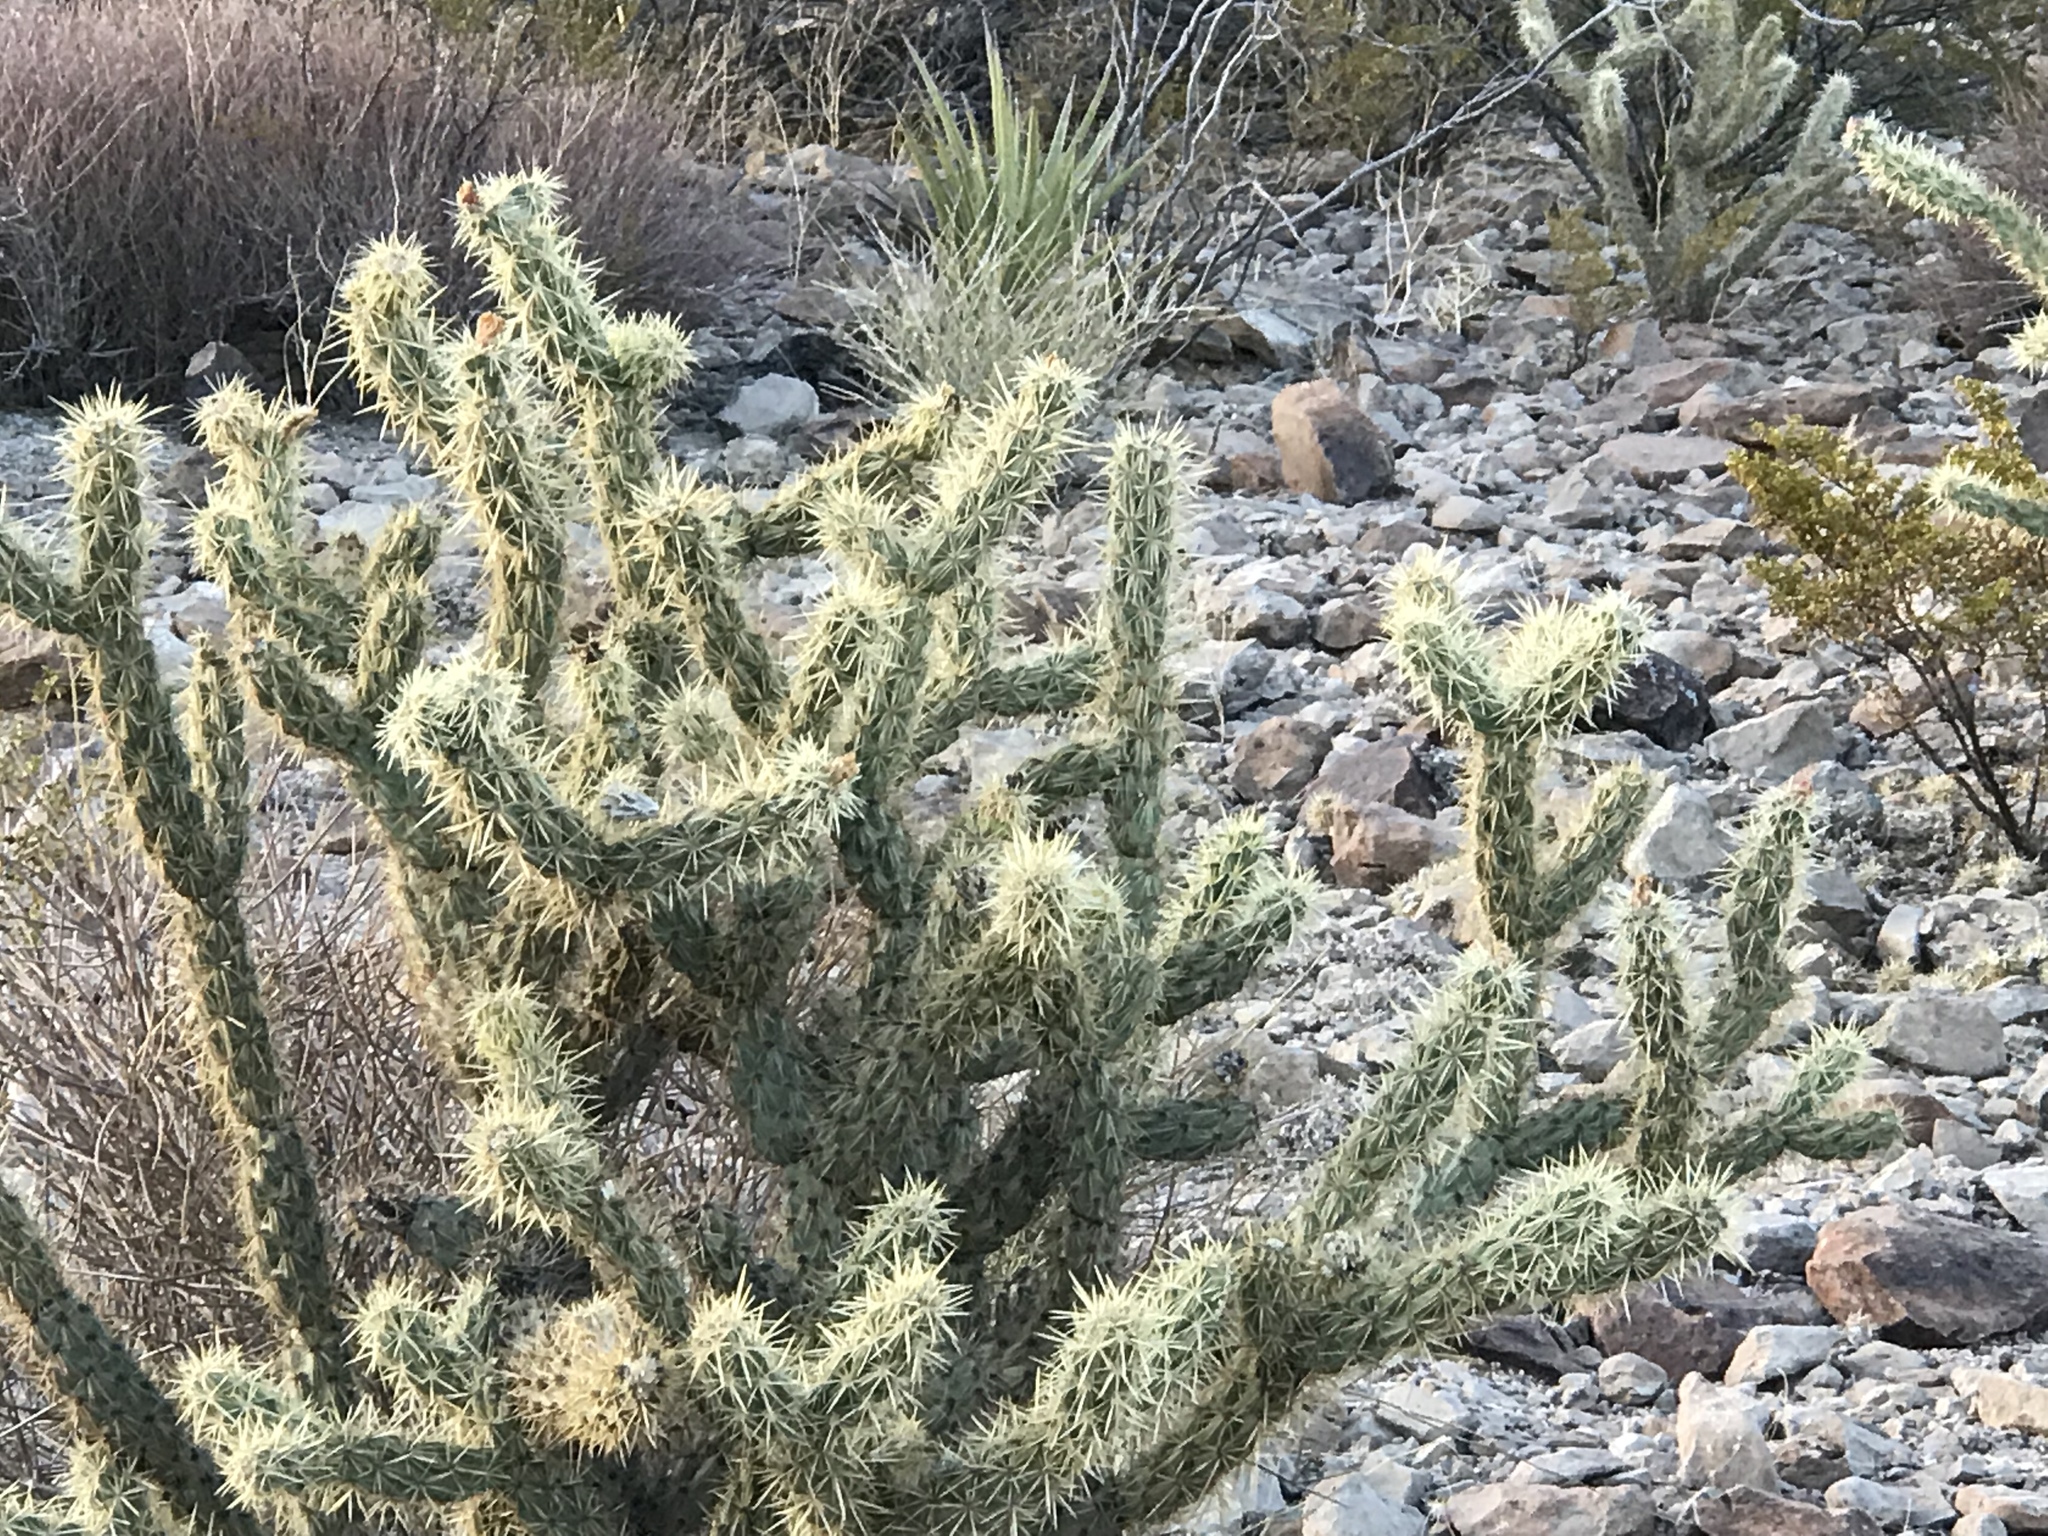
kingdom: Plantae
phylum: Tracheophyta
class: Magnoliopsida
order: Caryophyllales
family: Cactaceae
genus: Cylindropuntia
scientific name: Cylindropuntia acanthocarpa
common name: Buckhorn cholla
